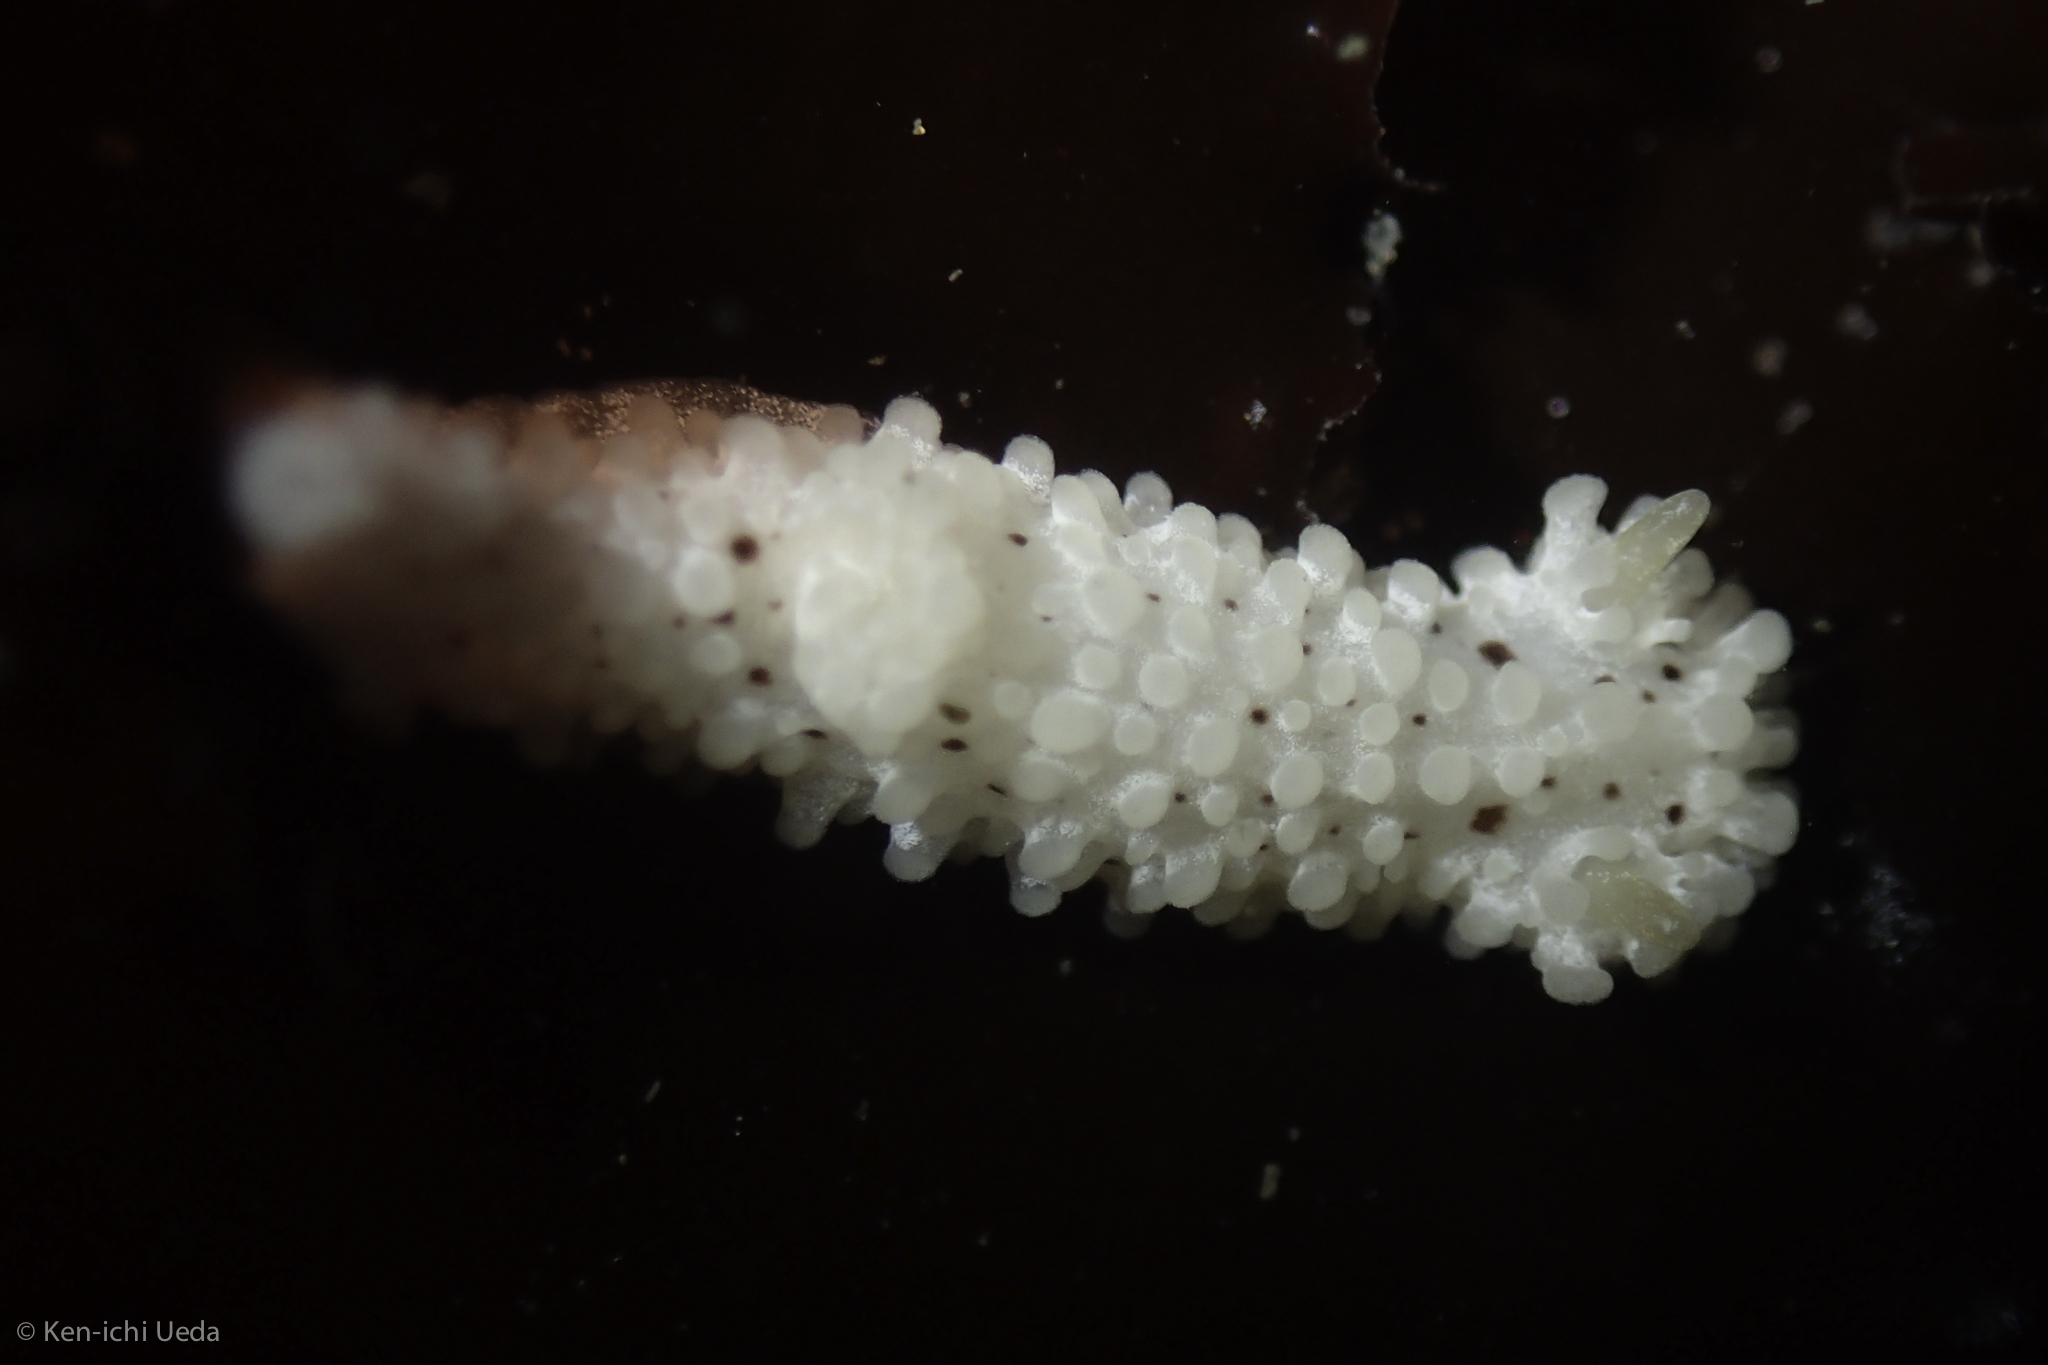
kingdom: Animalia
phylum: Mollusca
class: Gastropoda
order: Nudibranchia
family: Aegiridae
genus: Aegires
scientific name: Aegires albopunctatus
